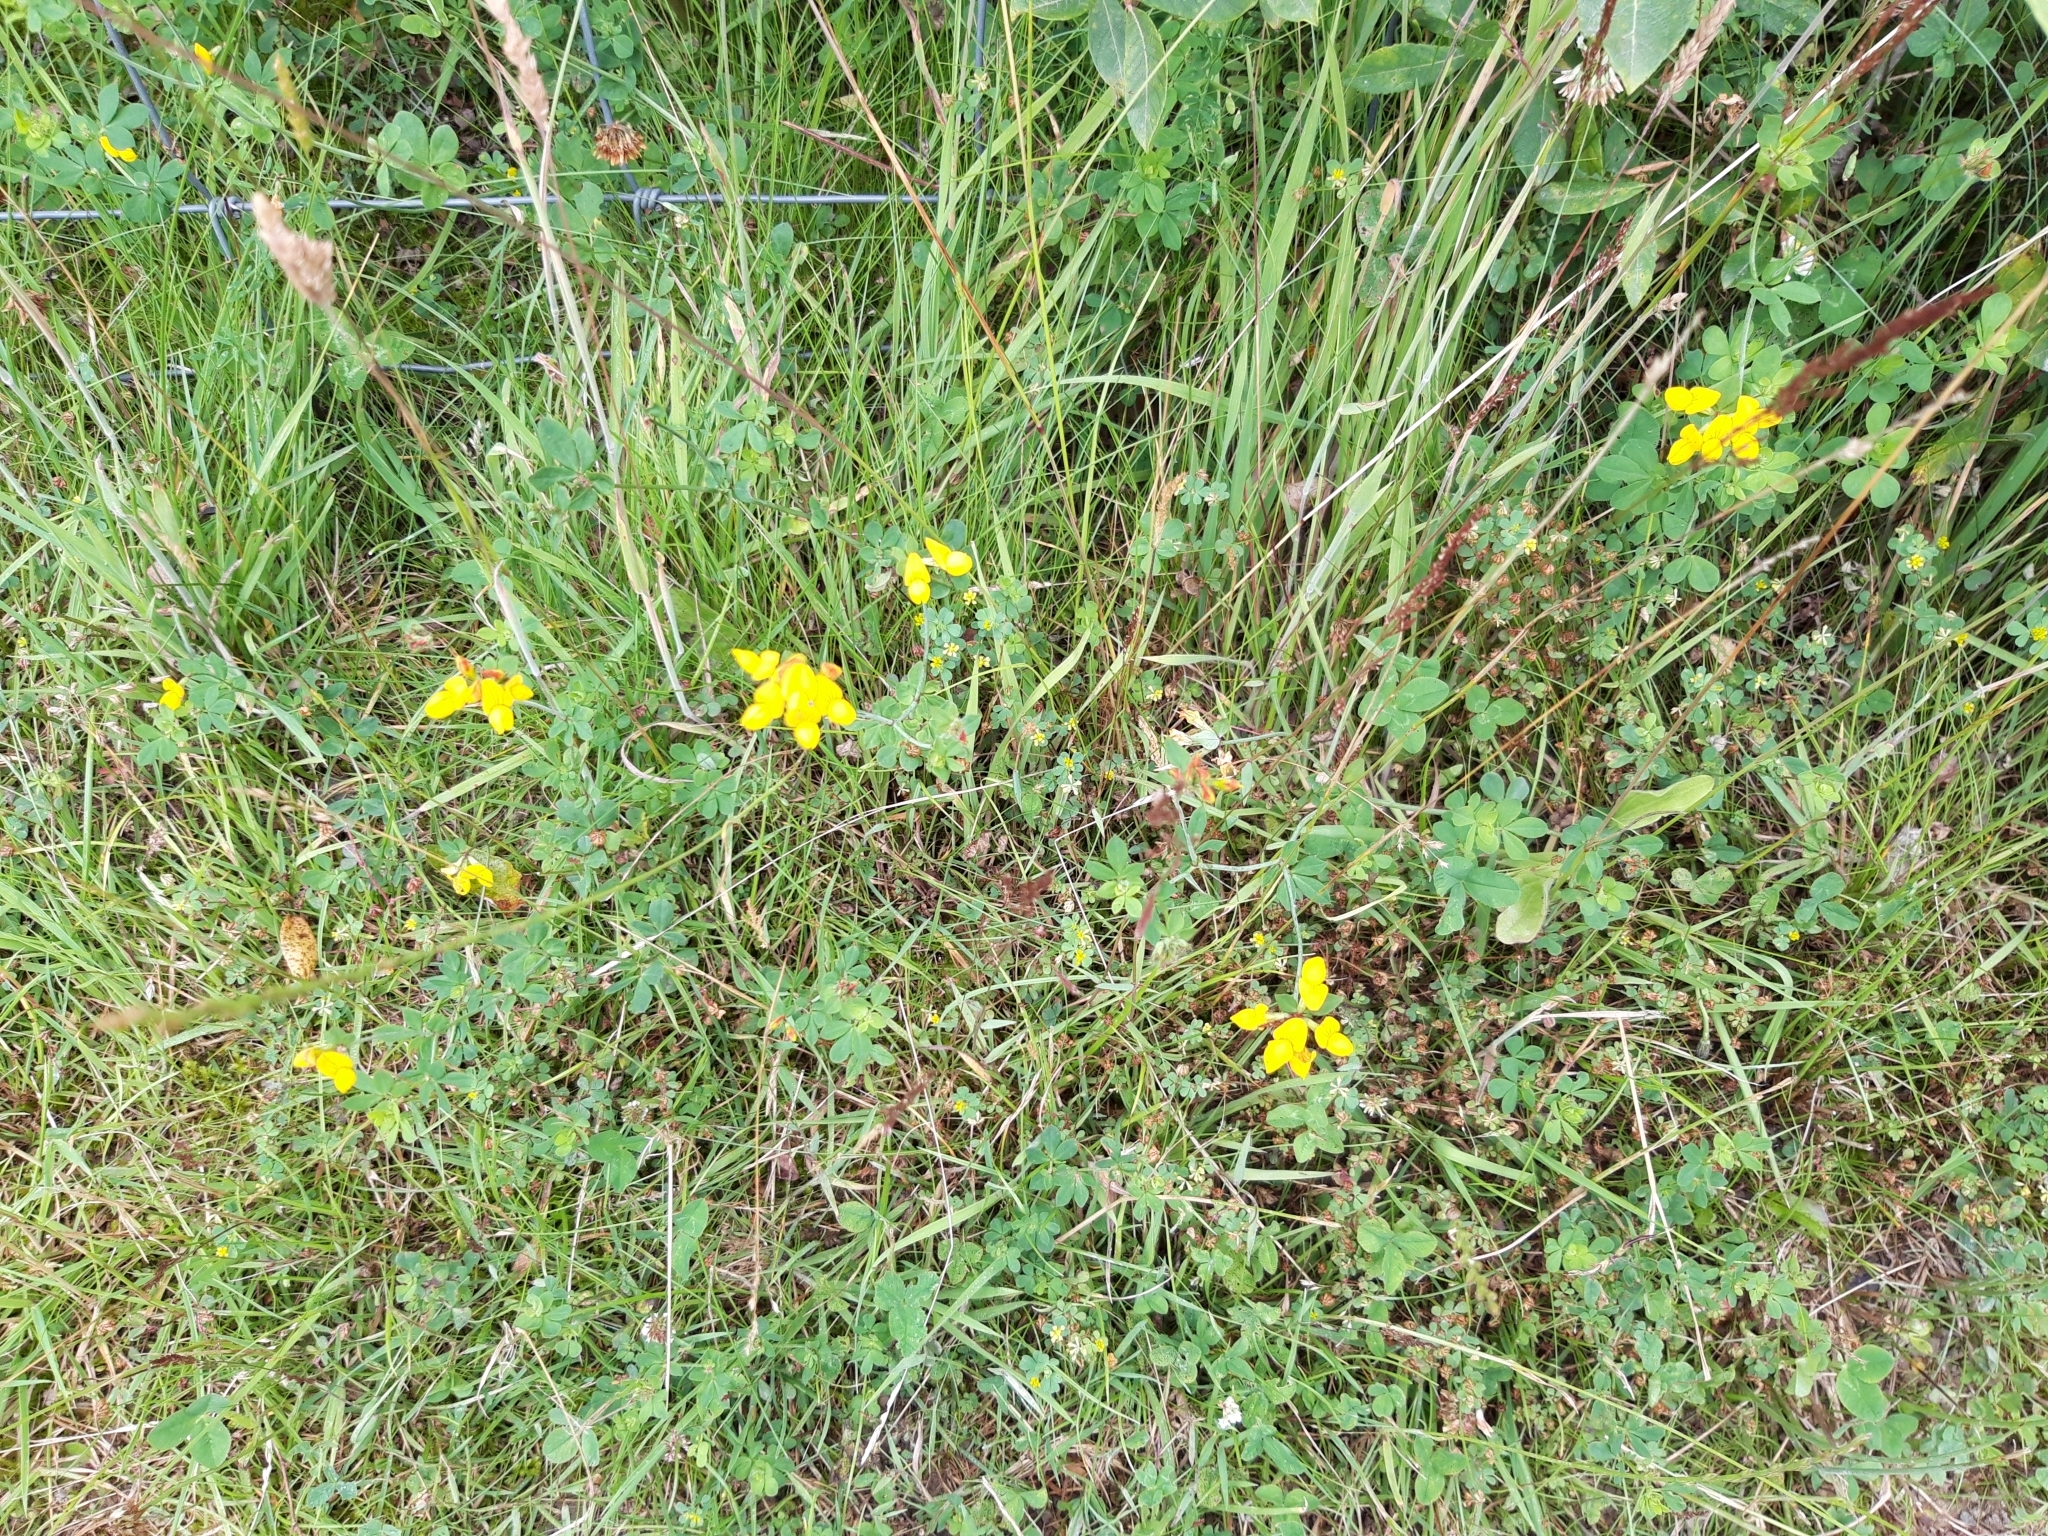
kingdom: Plantae
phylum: Tracheophyta
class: Magnoliopsida
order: Fabales
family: Fabaceae
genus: Lotus
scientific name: Lotus corniculatus
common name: Common bird's-foot-trefoil
